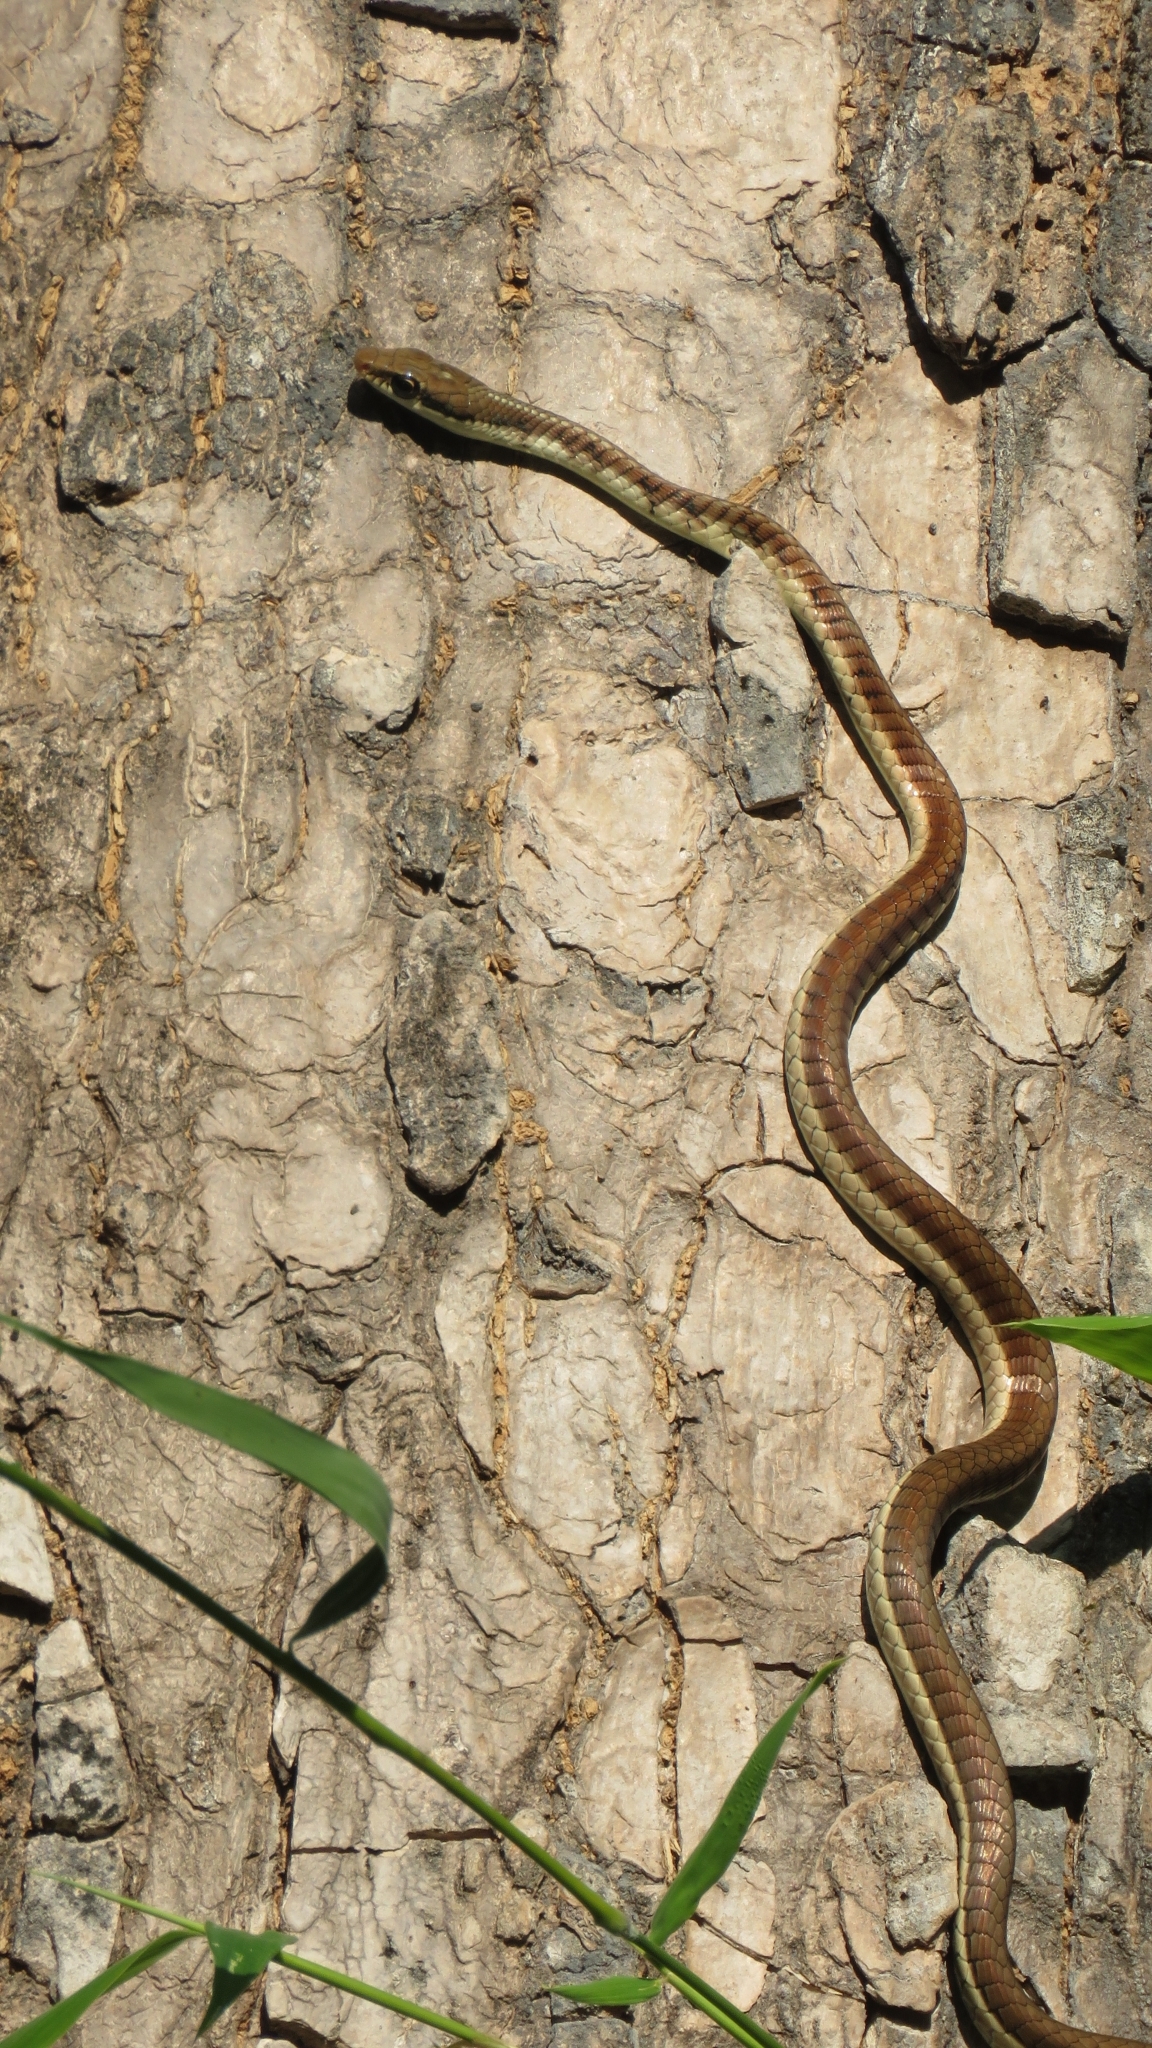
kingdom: Animalia
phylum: Chordata
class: Squamata
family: Colubridae
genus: Dendrelaphis
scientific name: Dendrelaphis tristis
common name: Daudin's bronzeback
